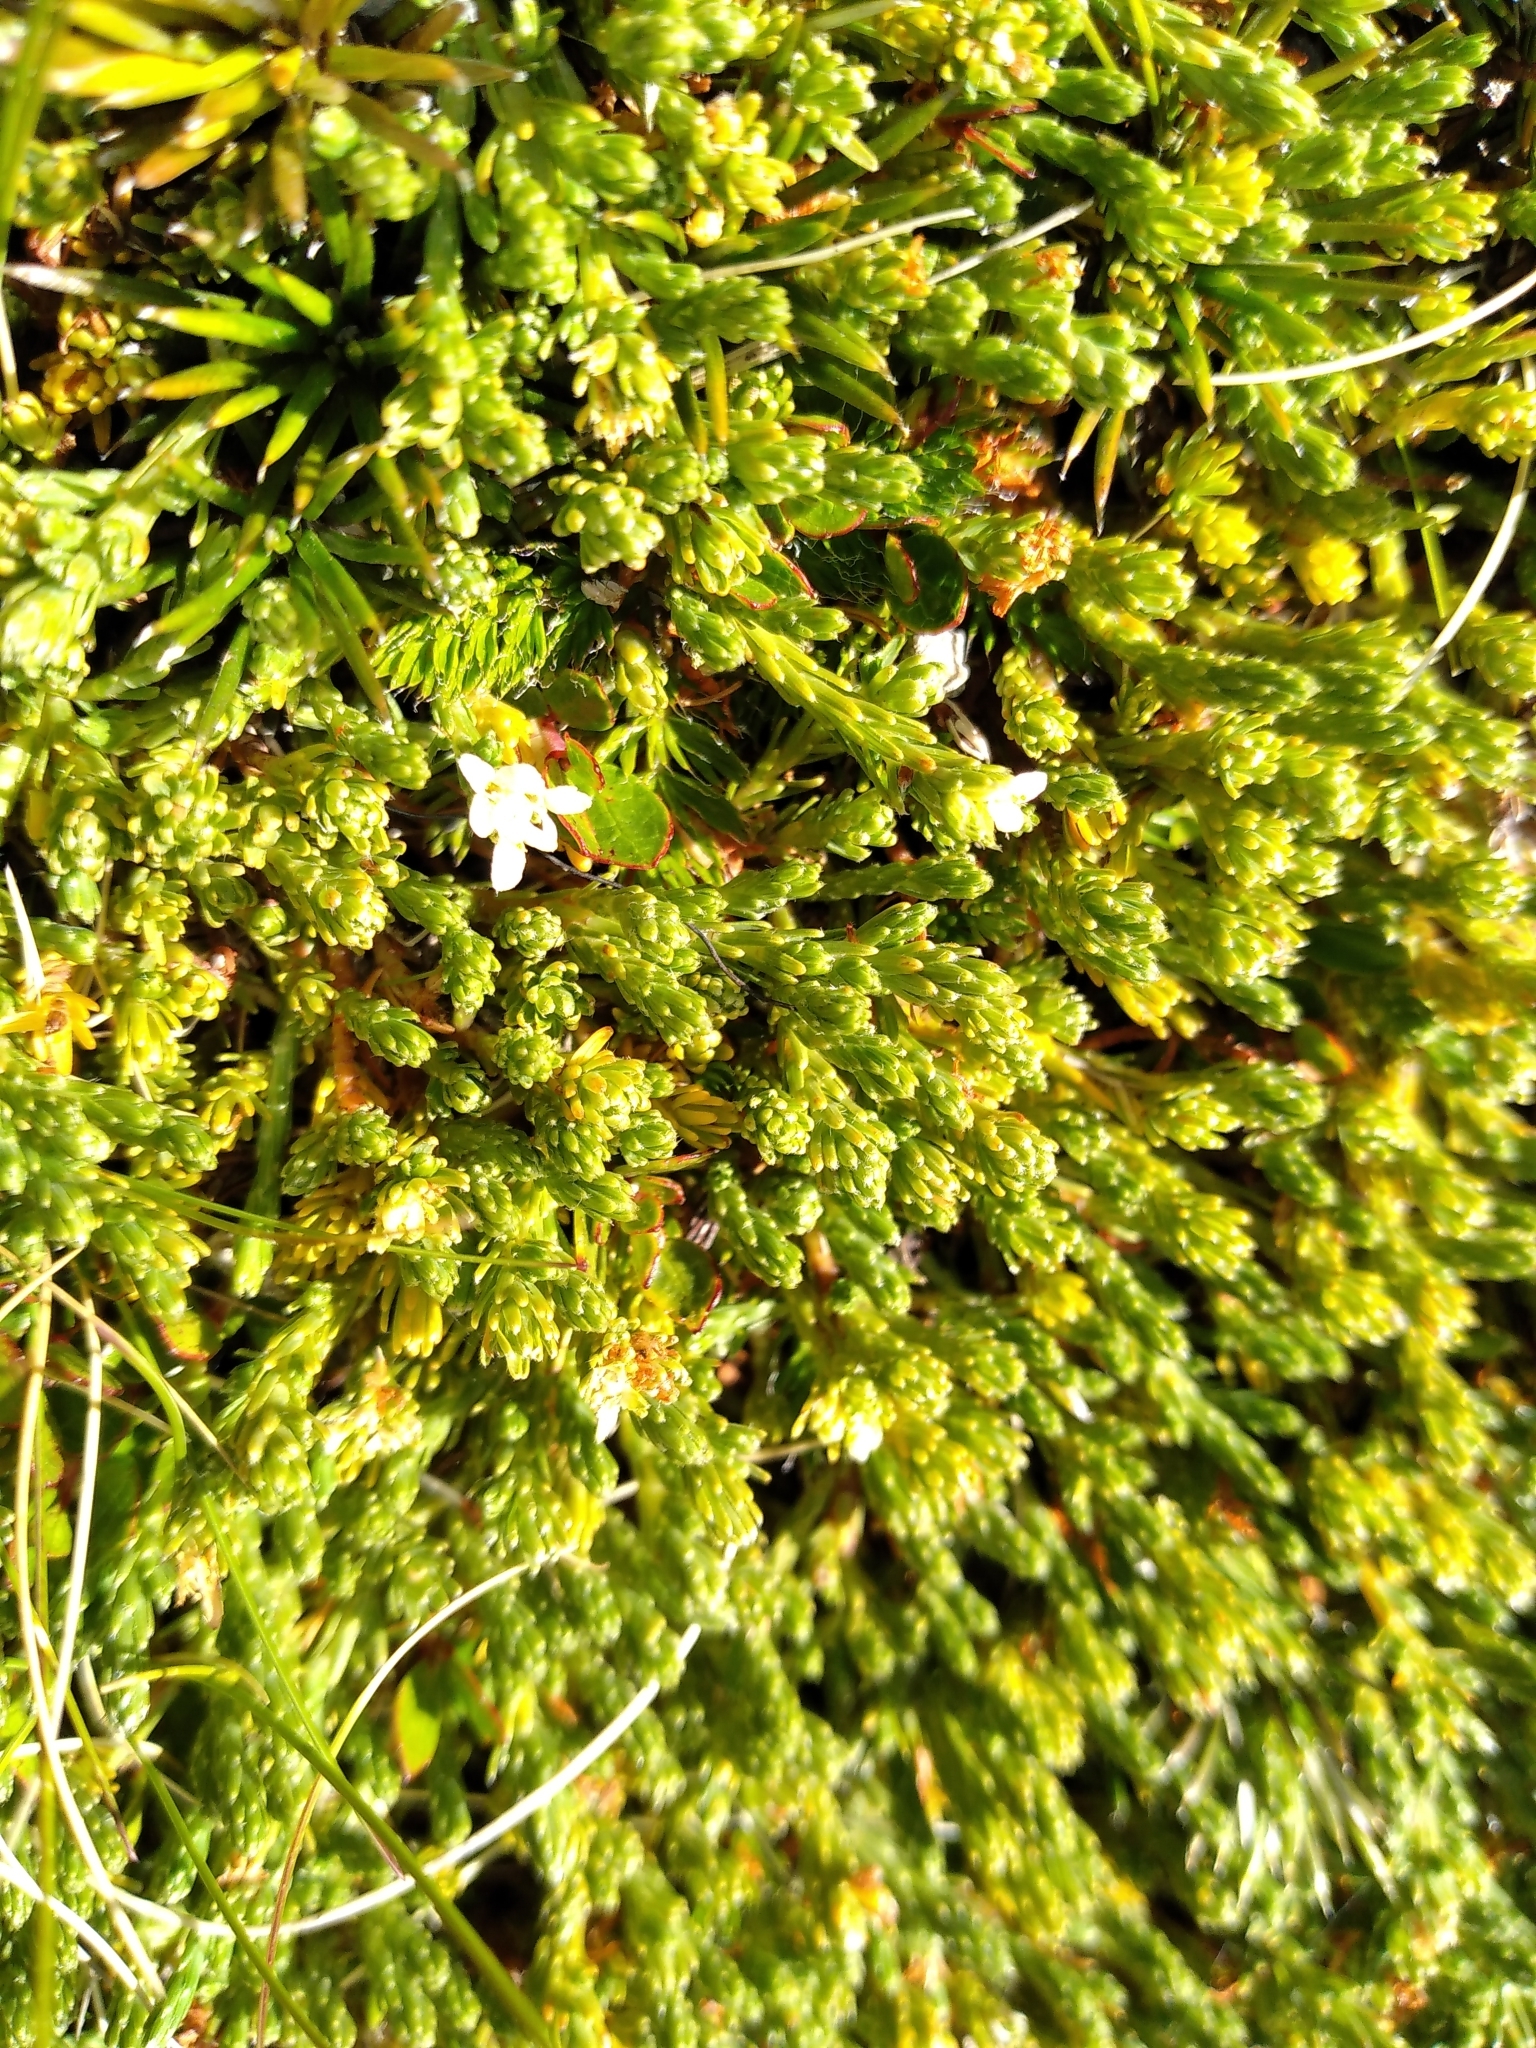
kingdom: Plantae
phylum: Tracheophyta
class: Magnoliopsida
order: Malvales
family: Thymelaeaceae
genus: Kelleria
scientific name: Kelleria dieffenbachii
